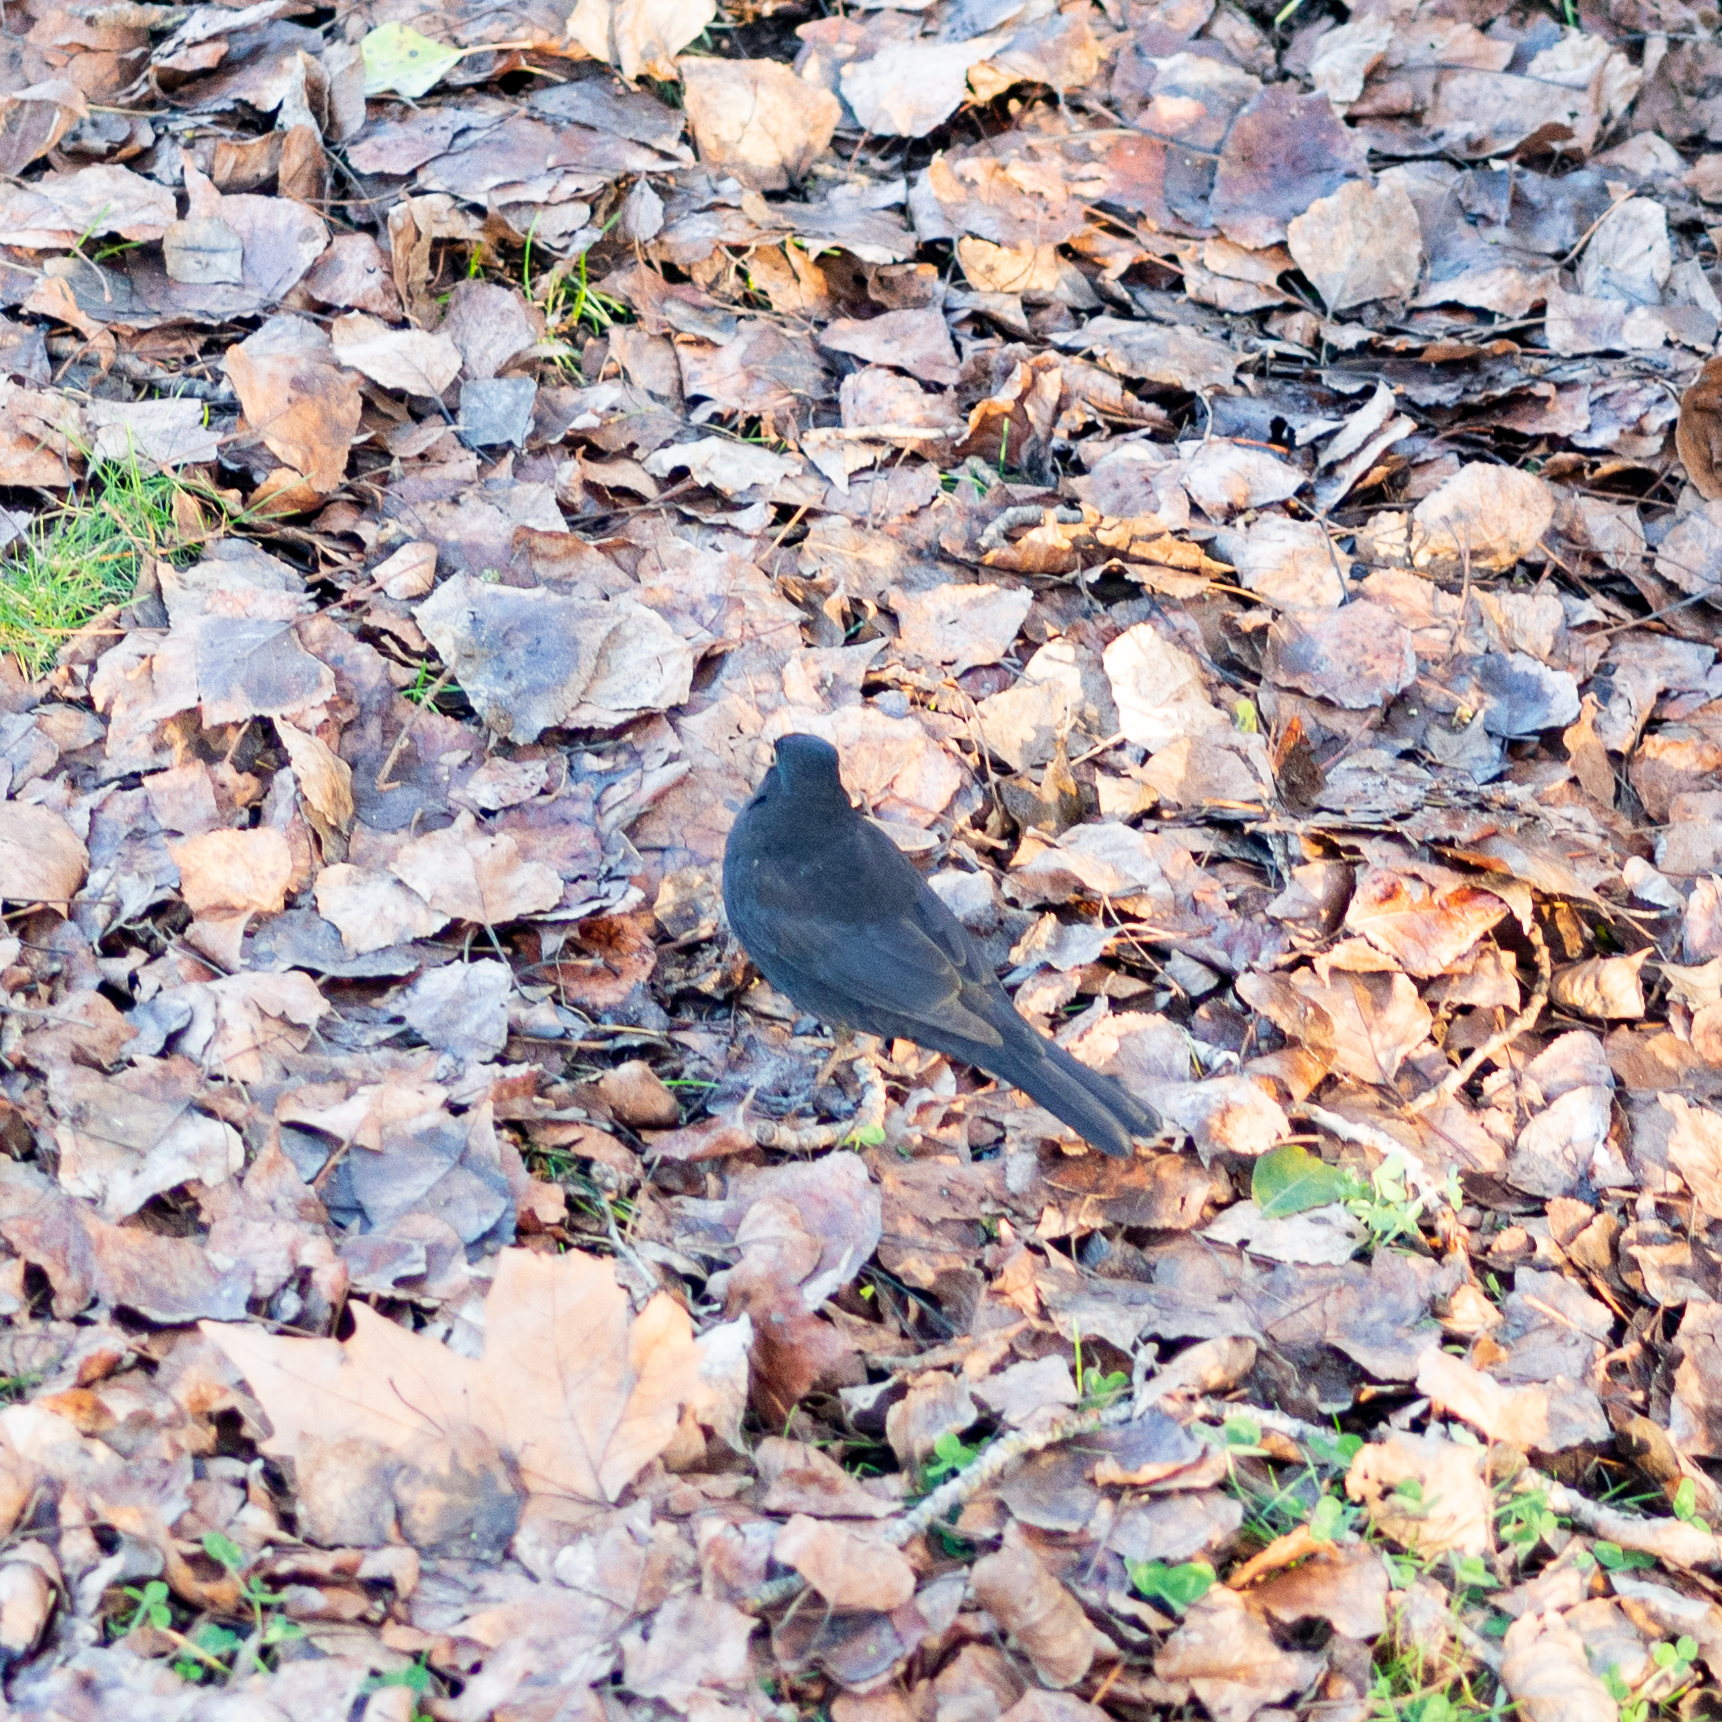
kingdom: Animalia
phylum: Chordata
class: Aves
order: Passeriformes
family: Turdidae
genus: Turdus
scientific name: Turdus merula
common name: Common blackbird
